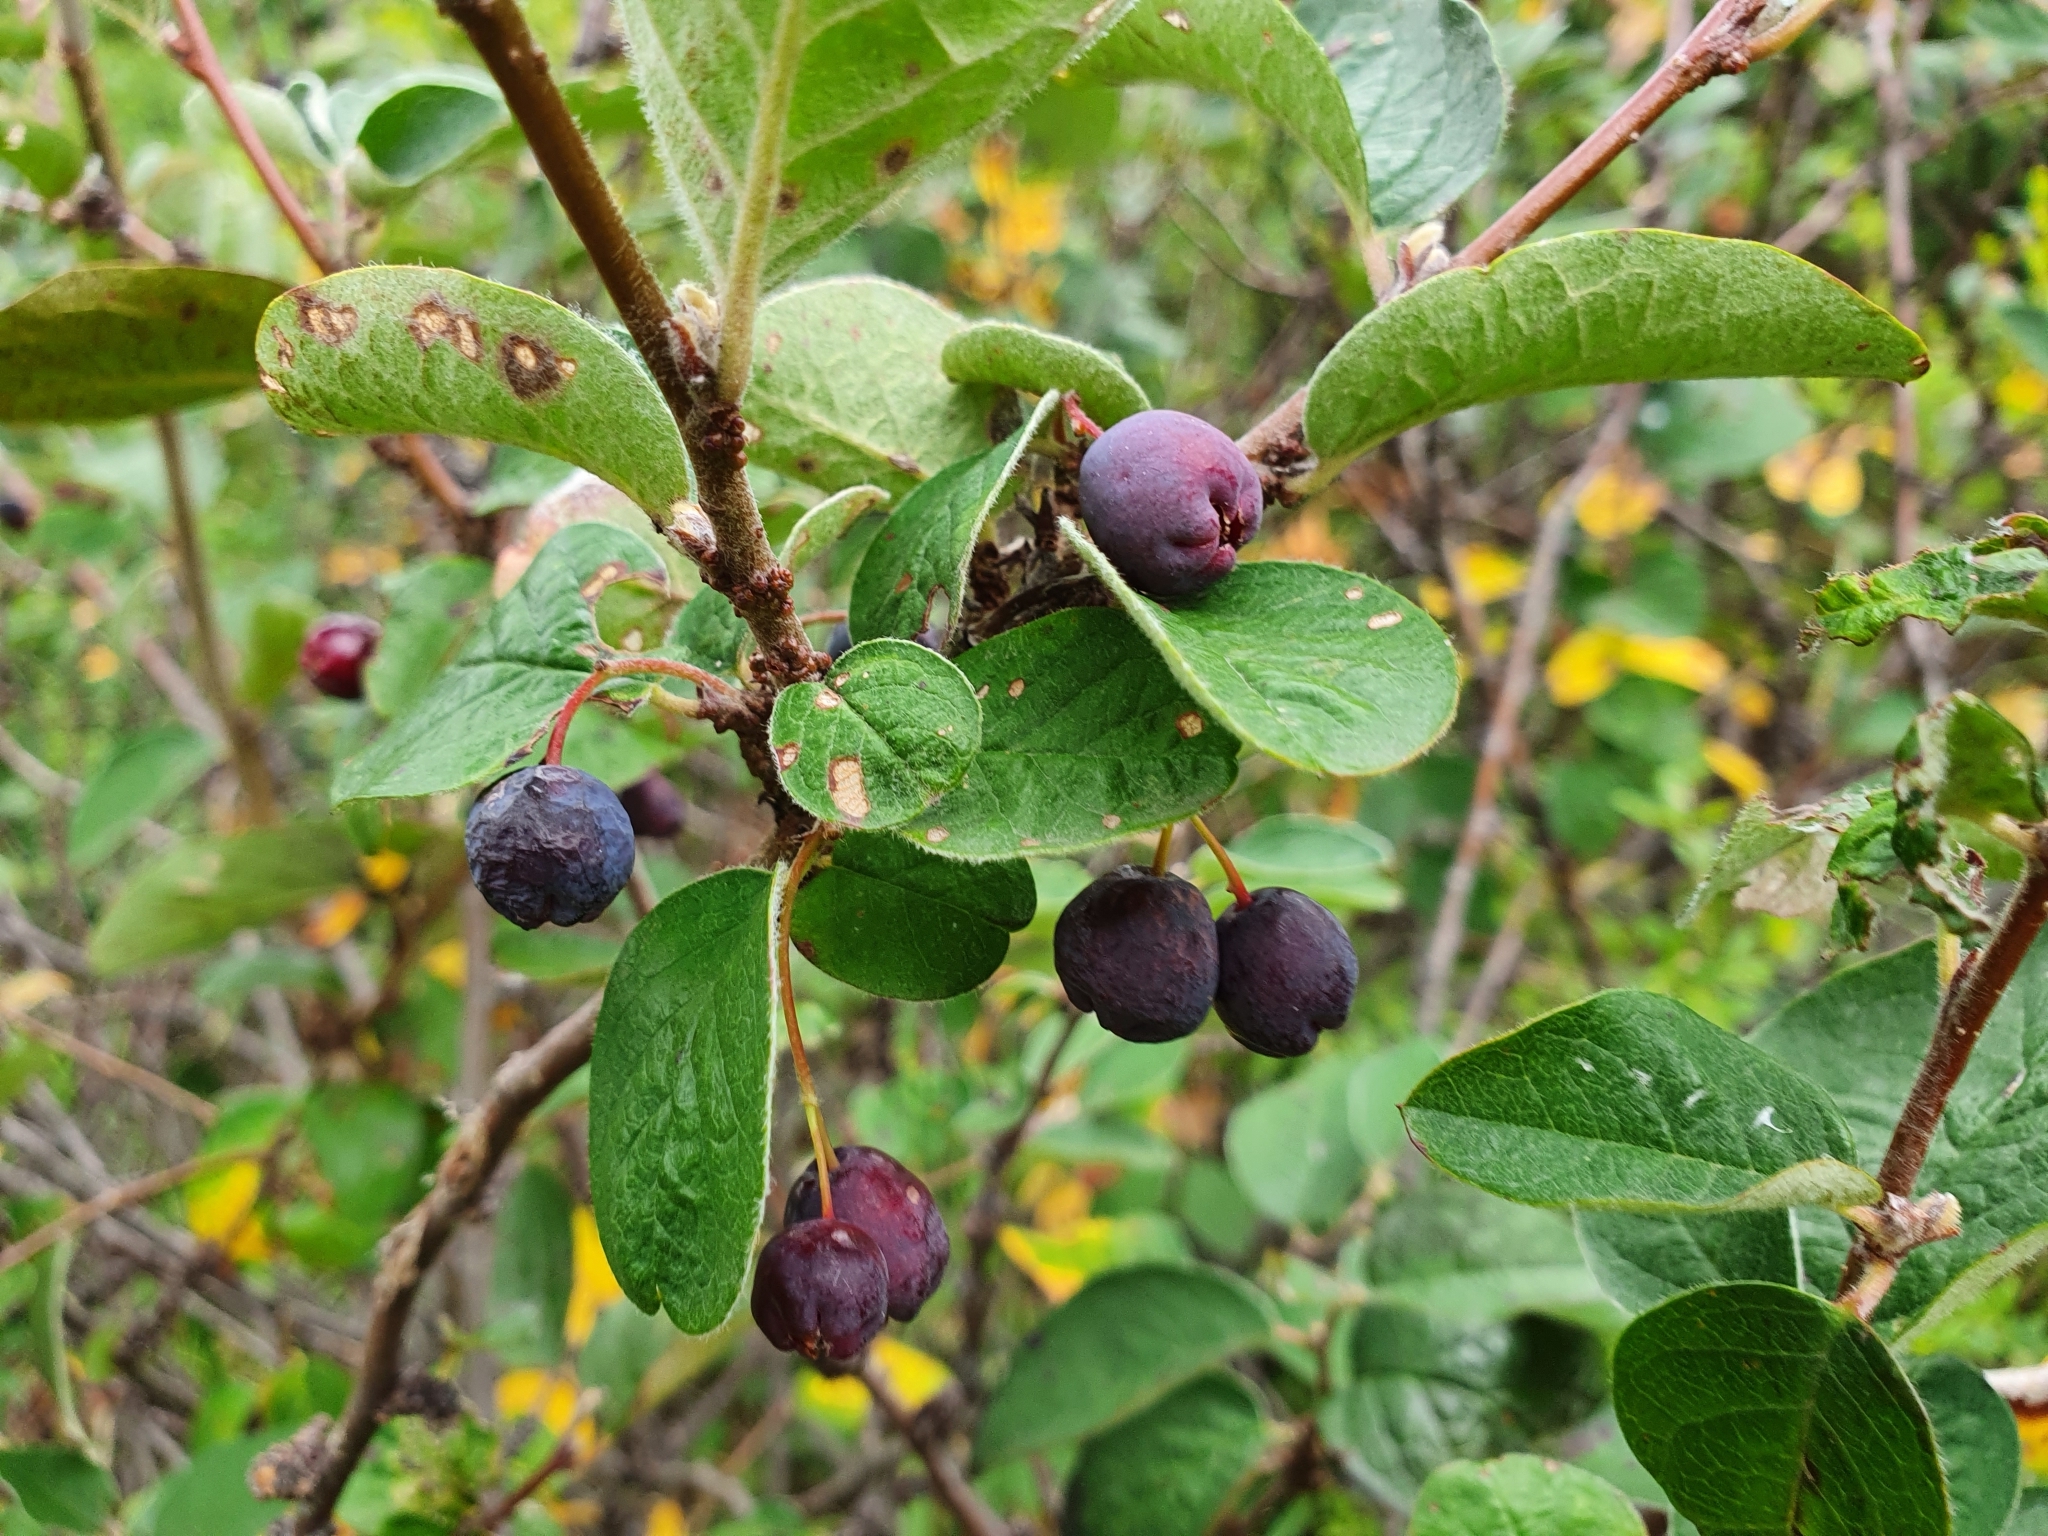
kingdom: Plantae
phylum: Tracheophyta
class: Magnoliopsida
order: Rosales
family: Rosaceae
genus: Cotoneaster
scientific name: Cotoneaster melanocarpus
